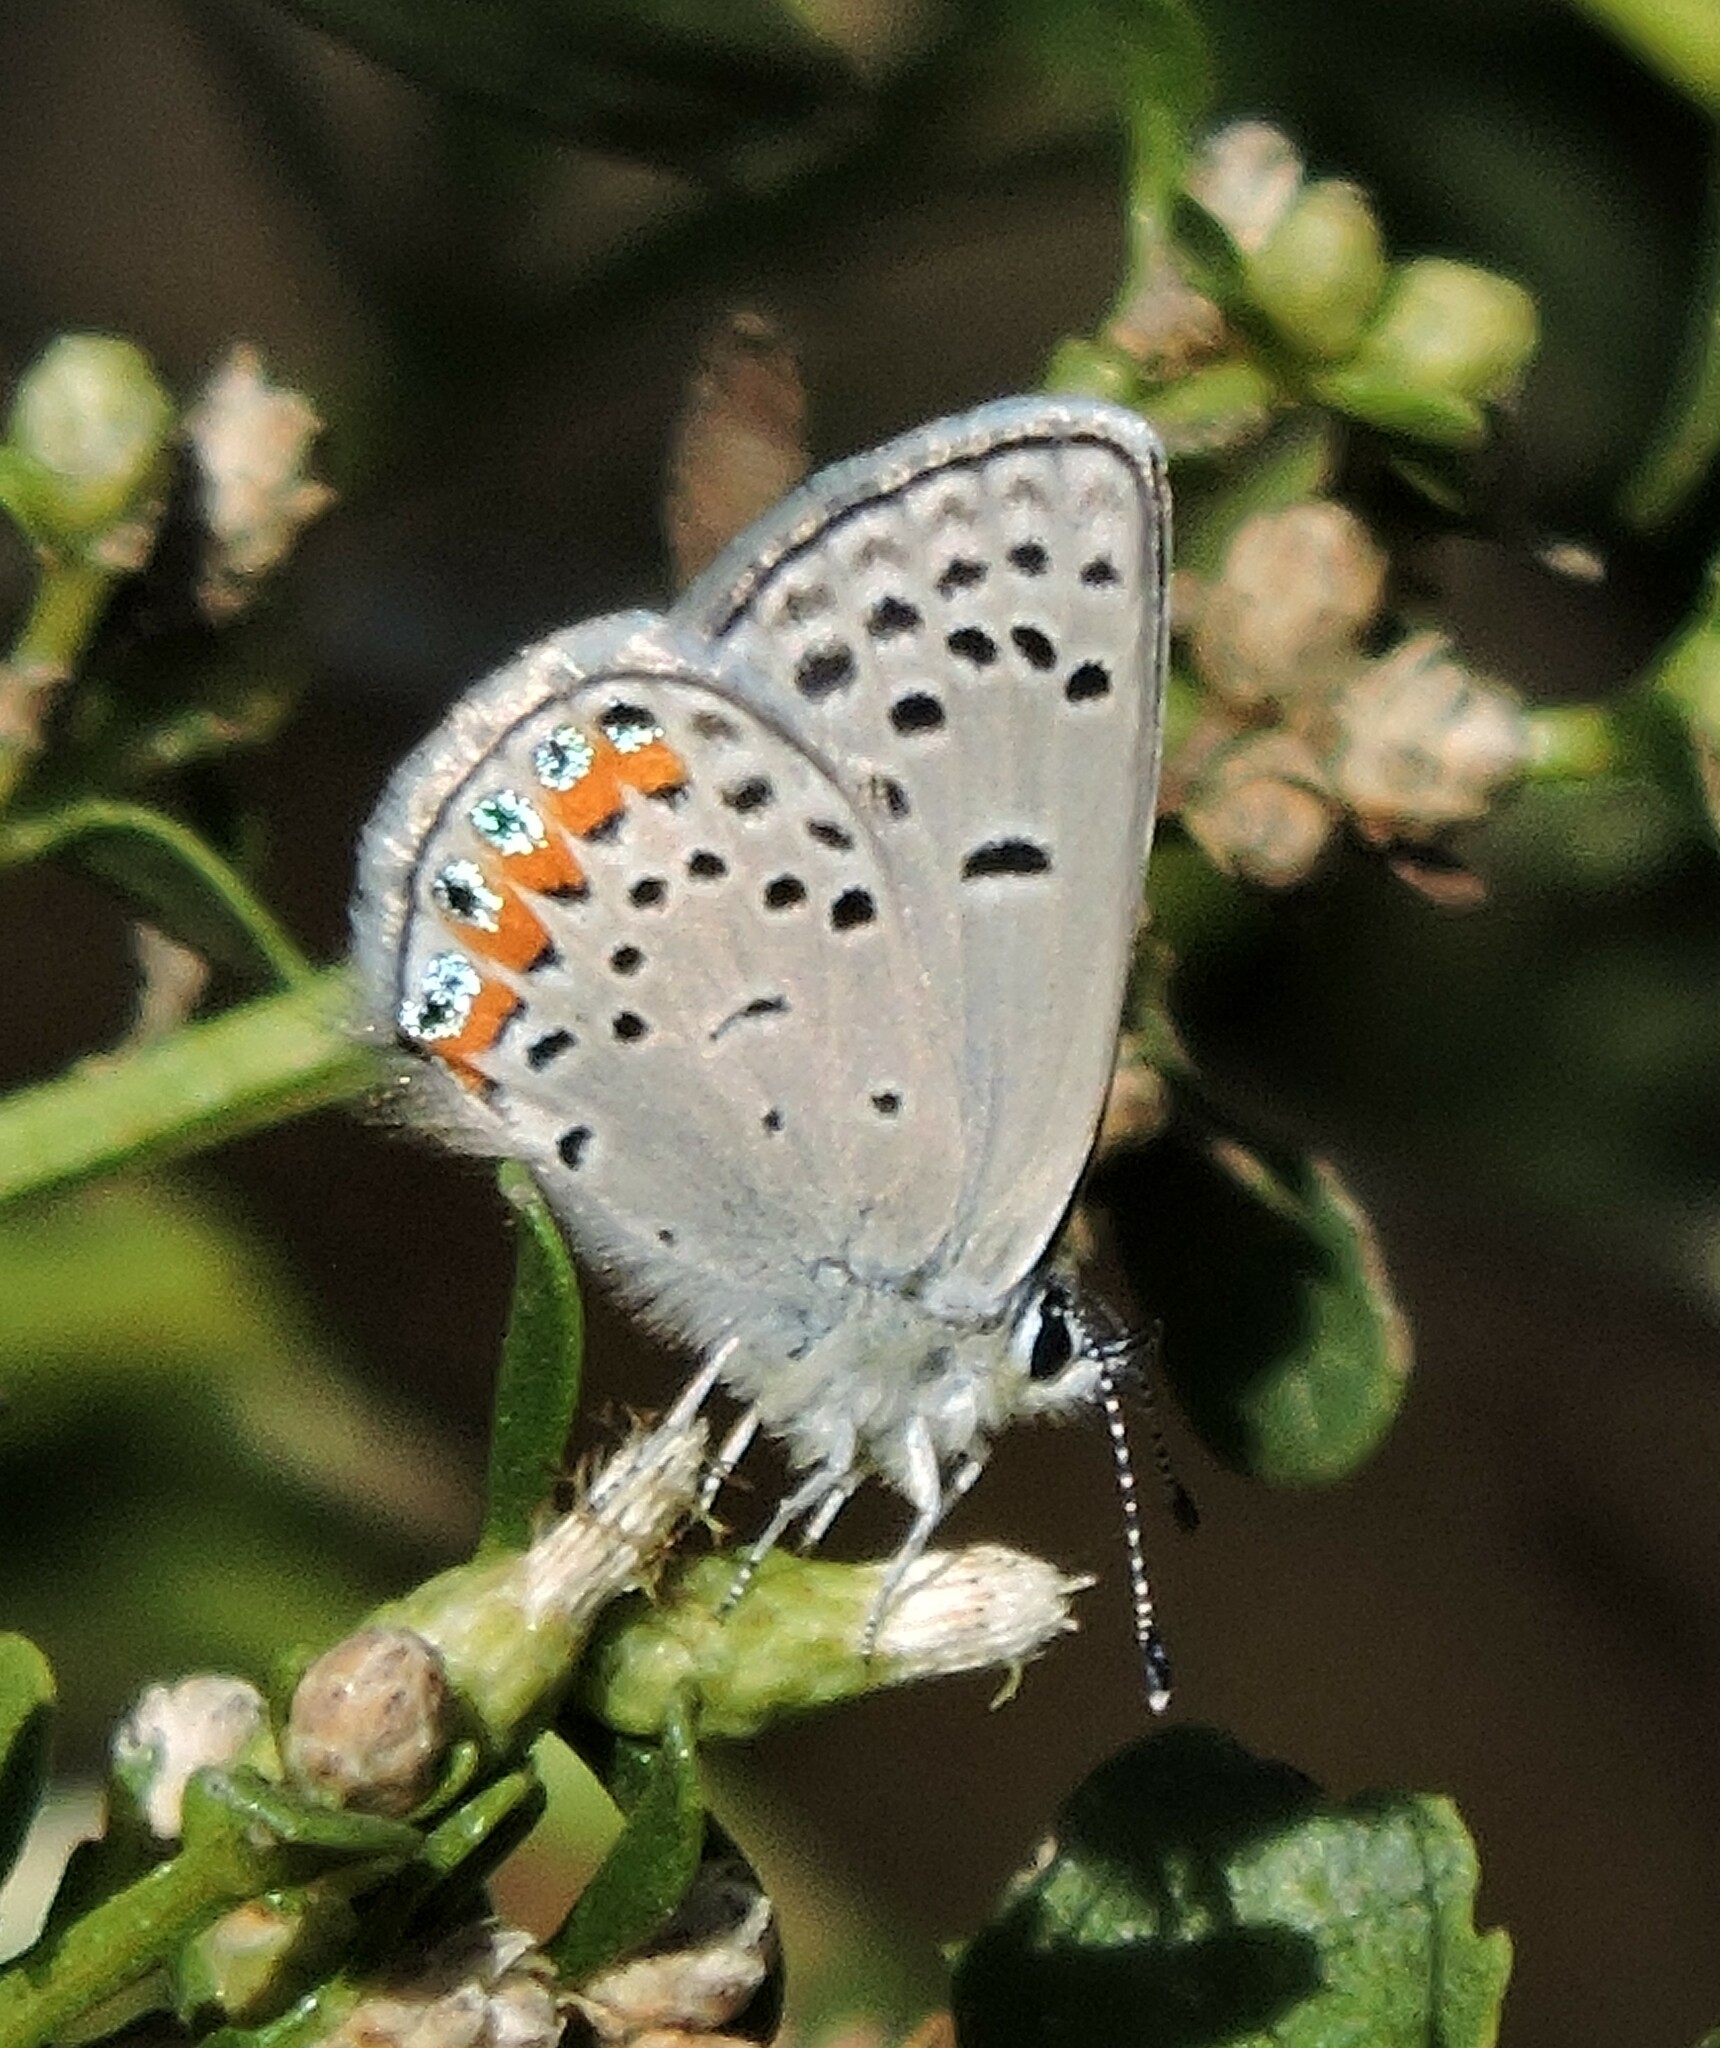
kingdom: Animalia
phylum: Arthropoda
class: Insecta
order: Lepidoptera
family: Lycaenidae
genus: Icaricia
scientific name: Icaricia acmon
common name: Acmon blue
